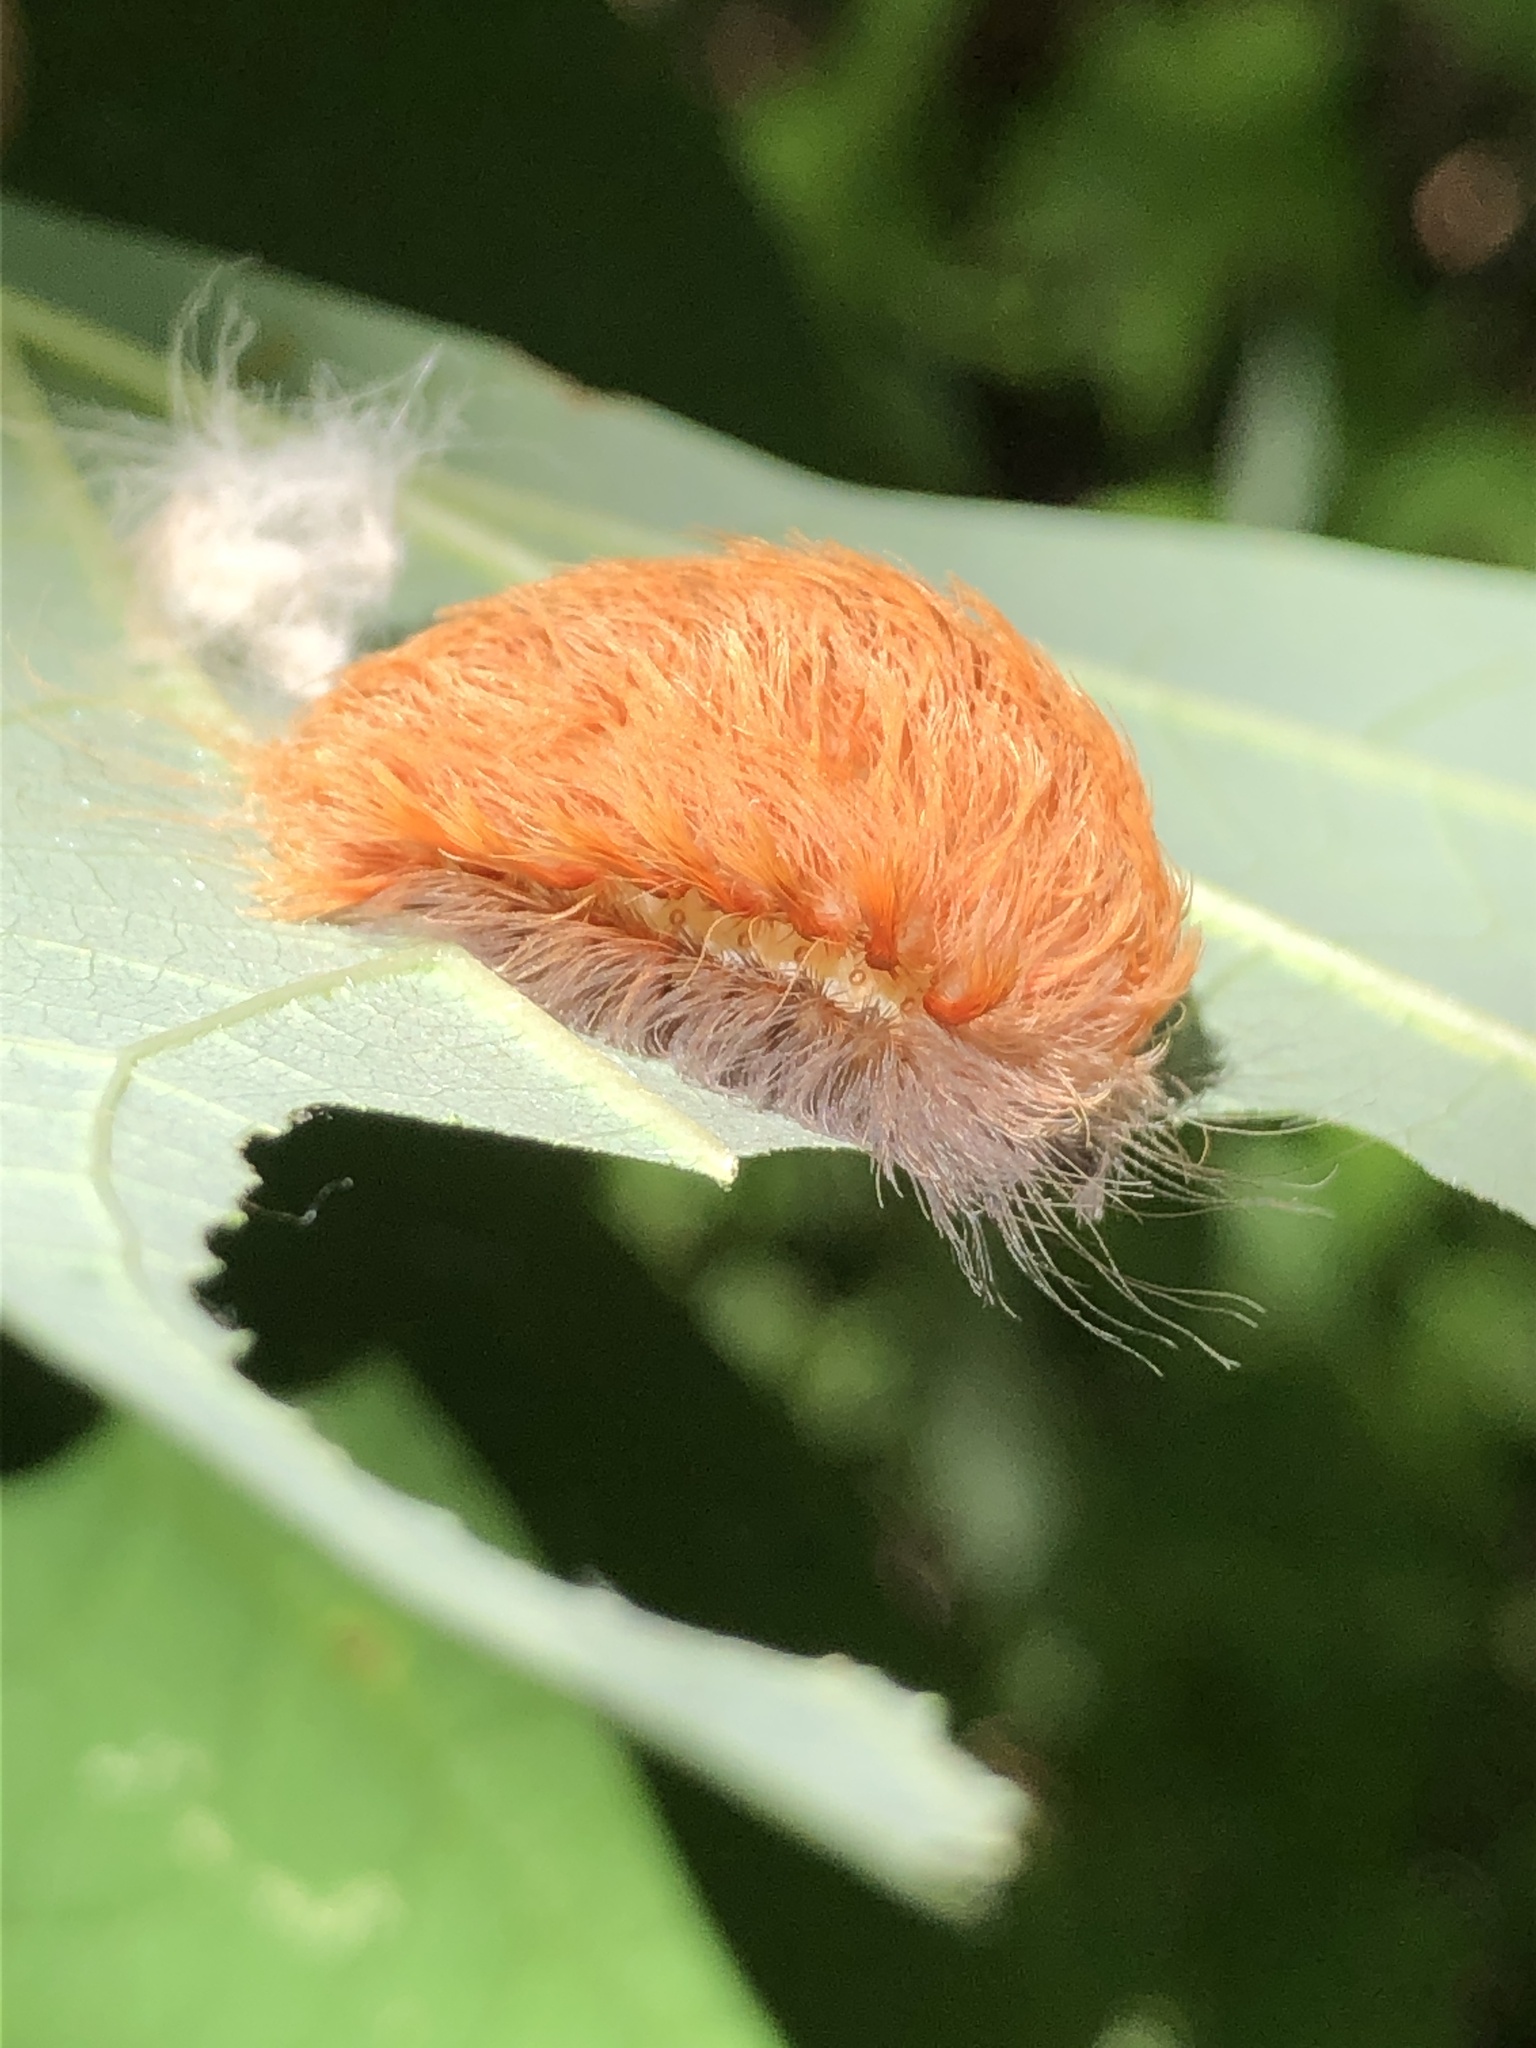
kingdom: Animalia
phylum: Arthropoda
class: Insecta
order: Lepidoptera
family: Megalopygidae
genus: Megalopyge
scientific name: Megalopyge crispata
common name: Black-waved flannel moth
